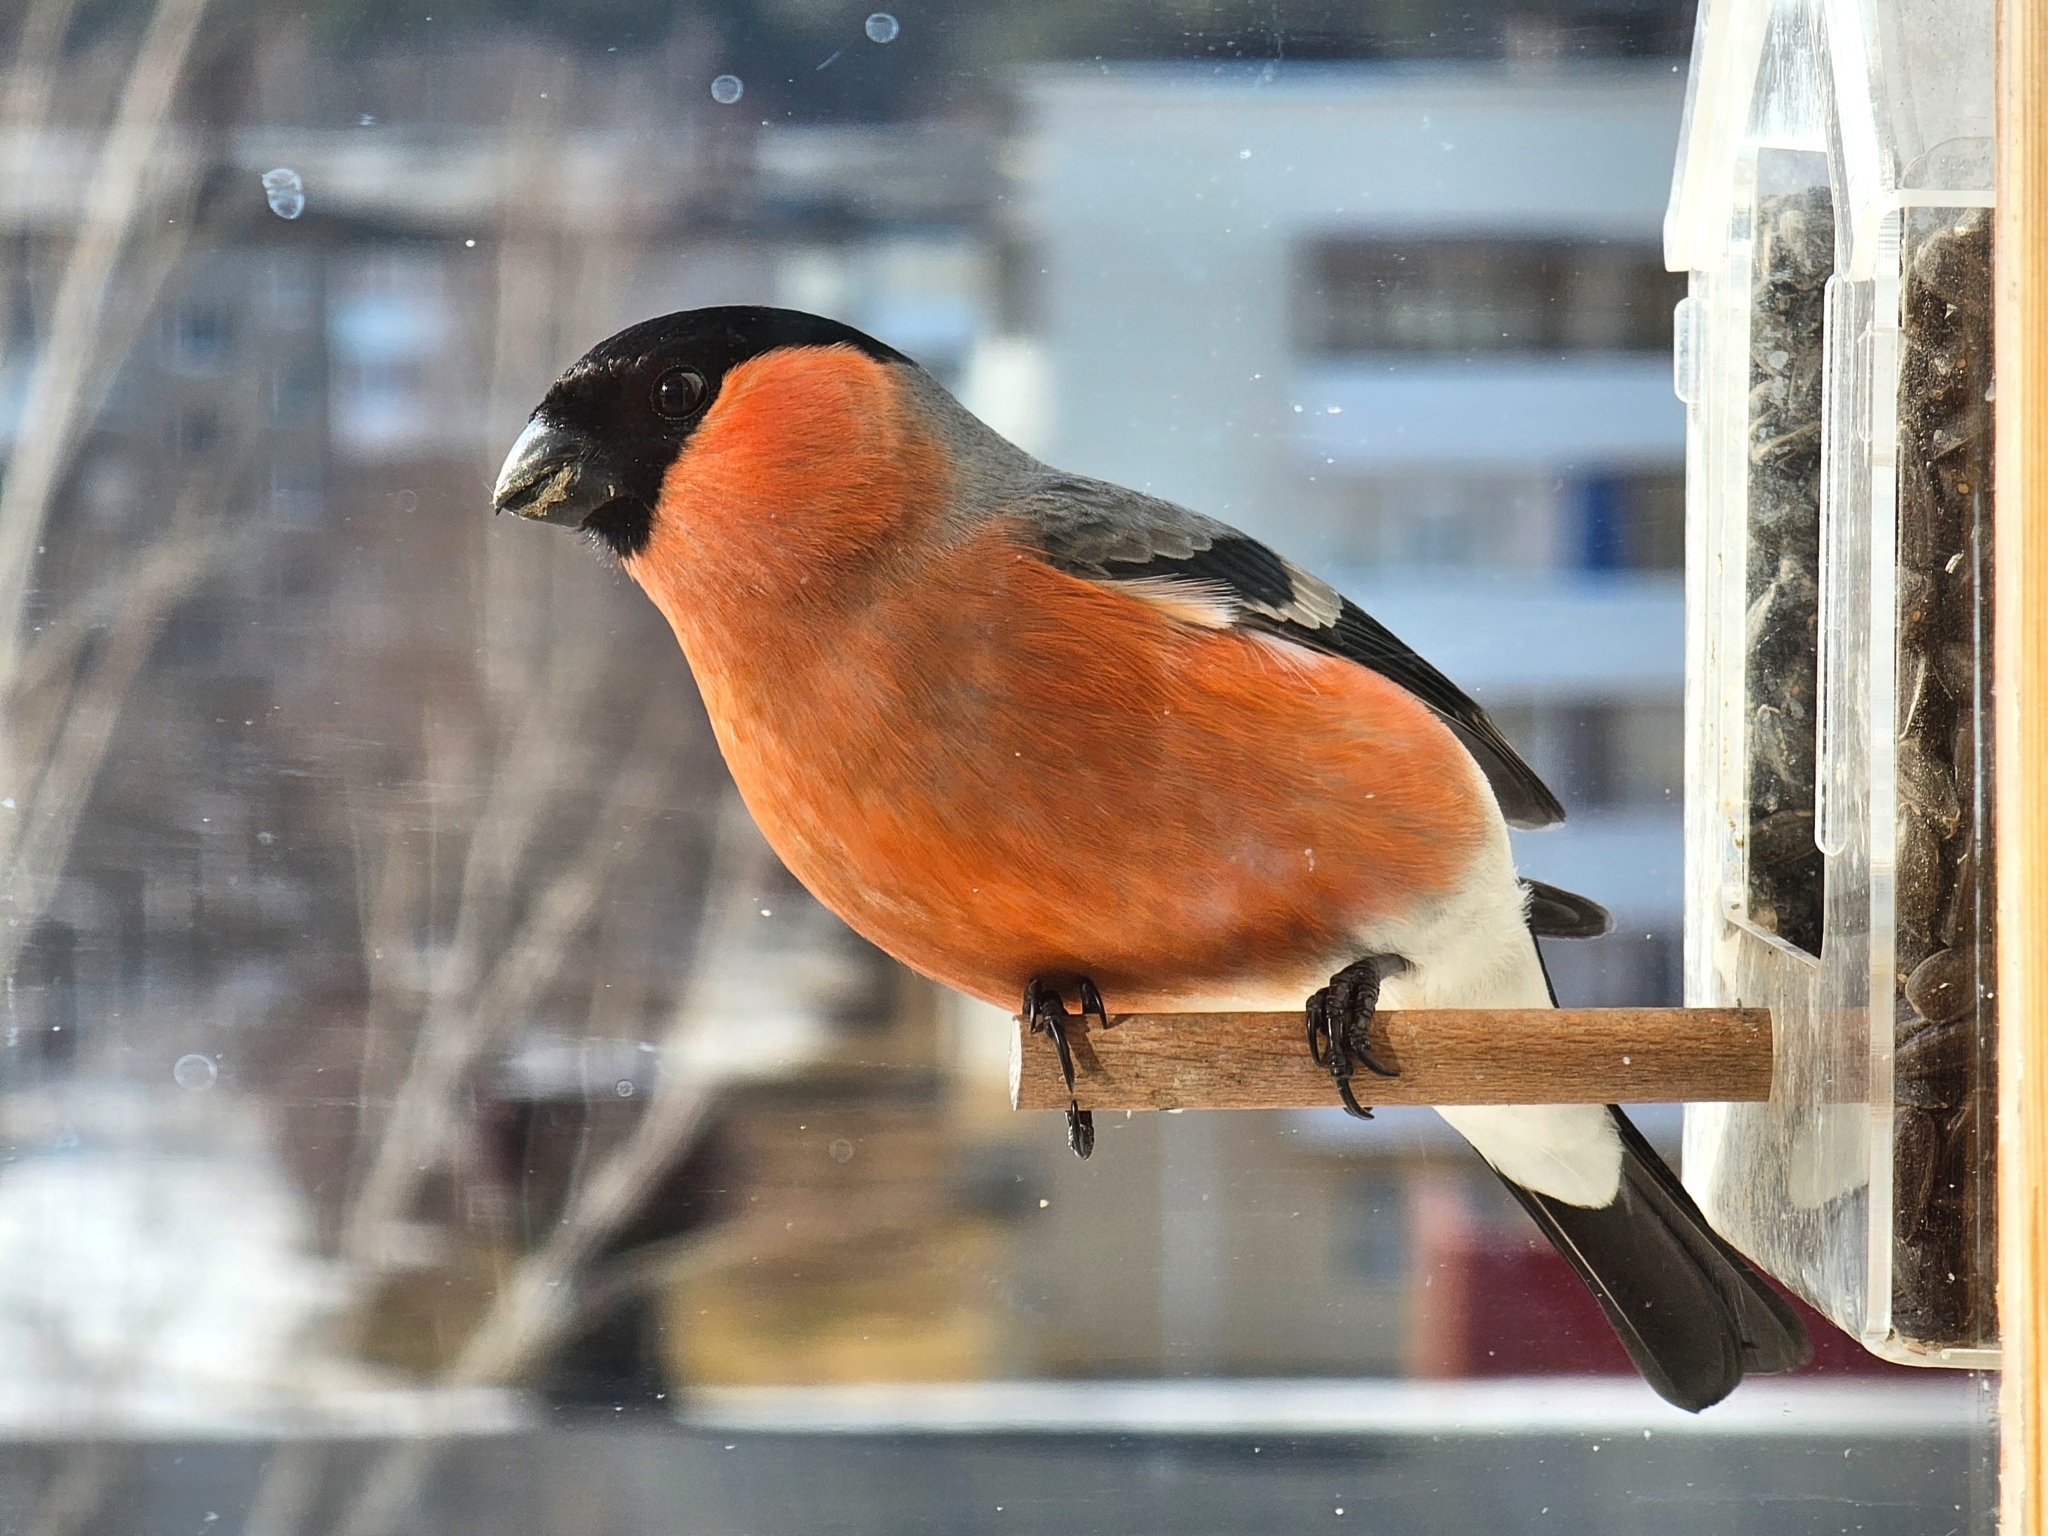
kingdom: Animalia
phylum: Chordata
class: Aves
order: Passeriformes
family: Fringillidae
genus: Pyrrhula
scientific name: Pyrrhula pyrrhula
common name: Eurasian bullfinch
